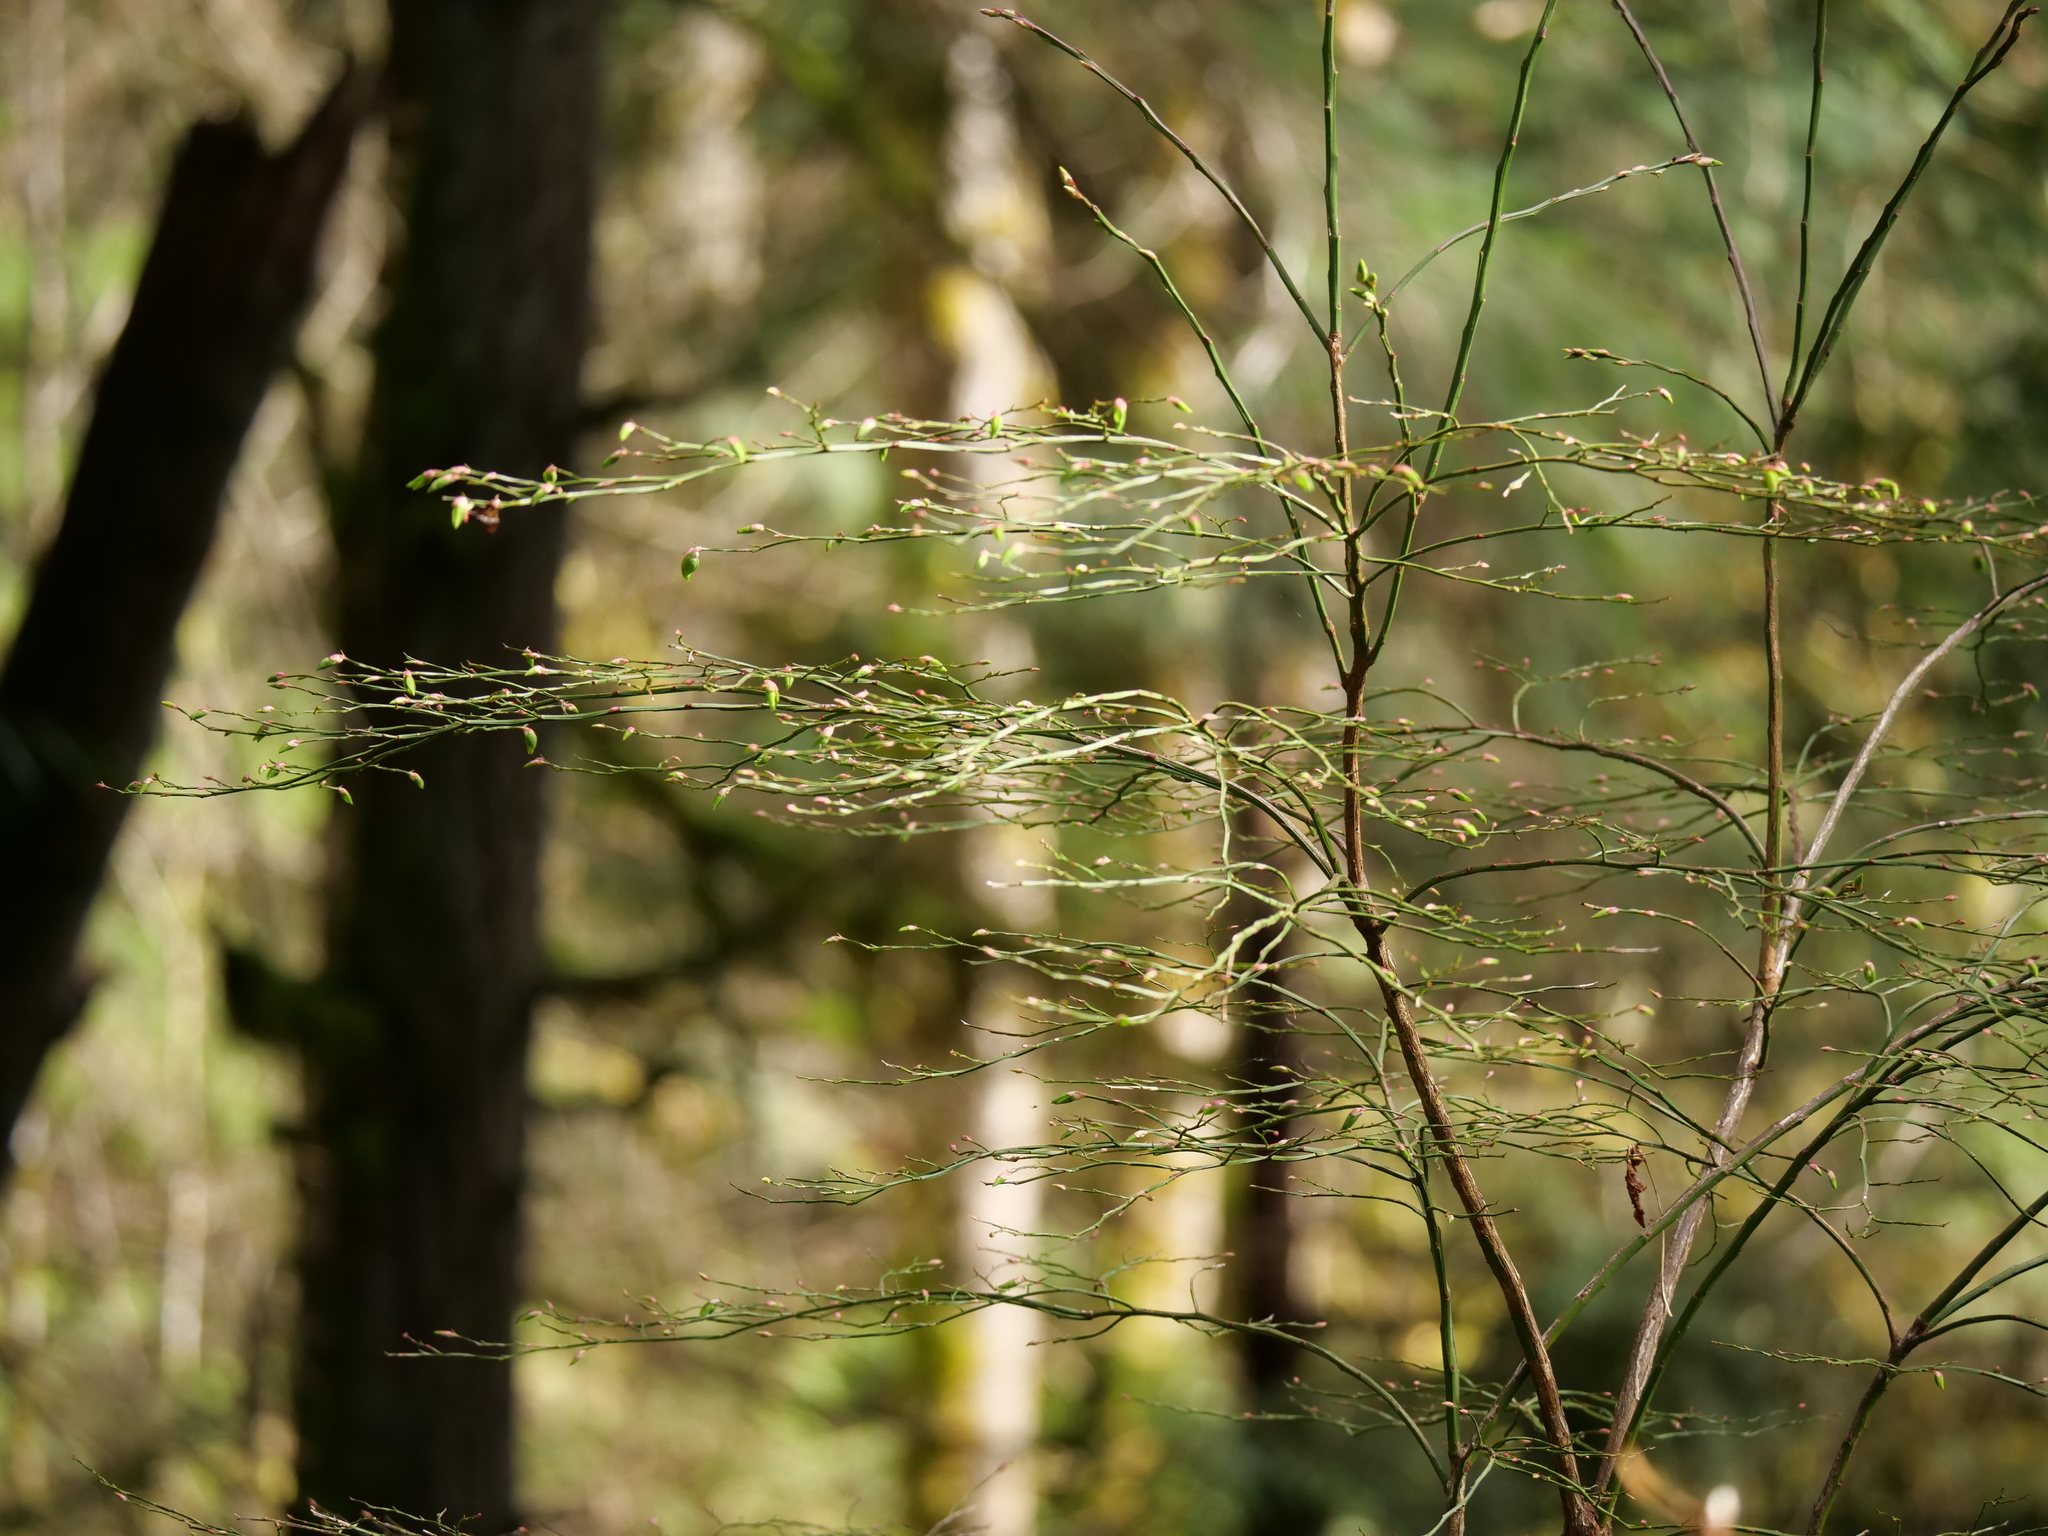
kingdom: Plantae
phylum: Tracheophyta
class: Magnoliopsida
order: Ericales
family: Ericaceae
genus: Vaccinium
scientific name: Vaccinium parvifolium
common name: Red-huckleberry
